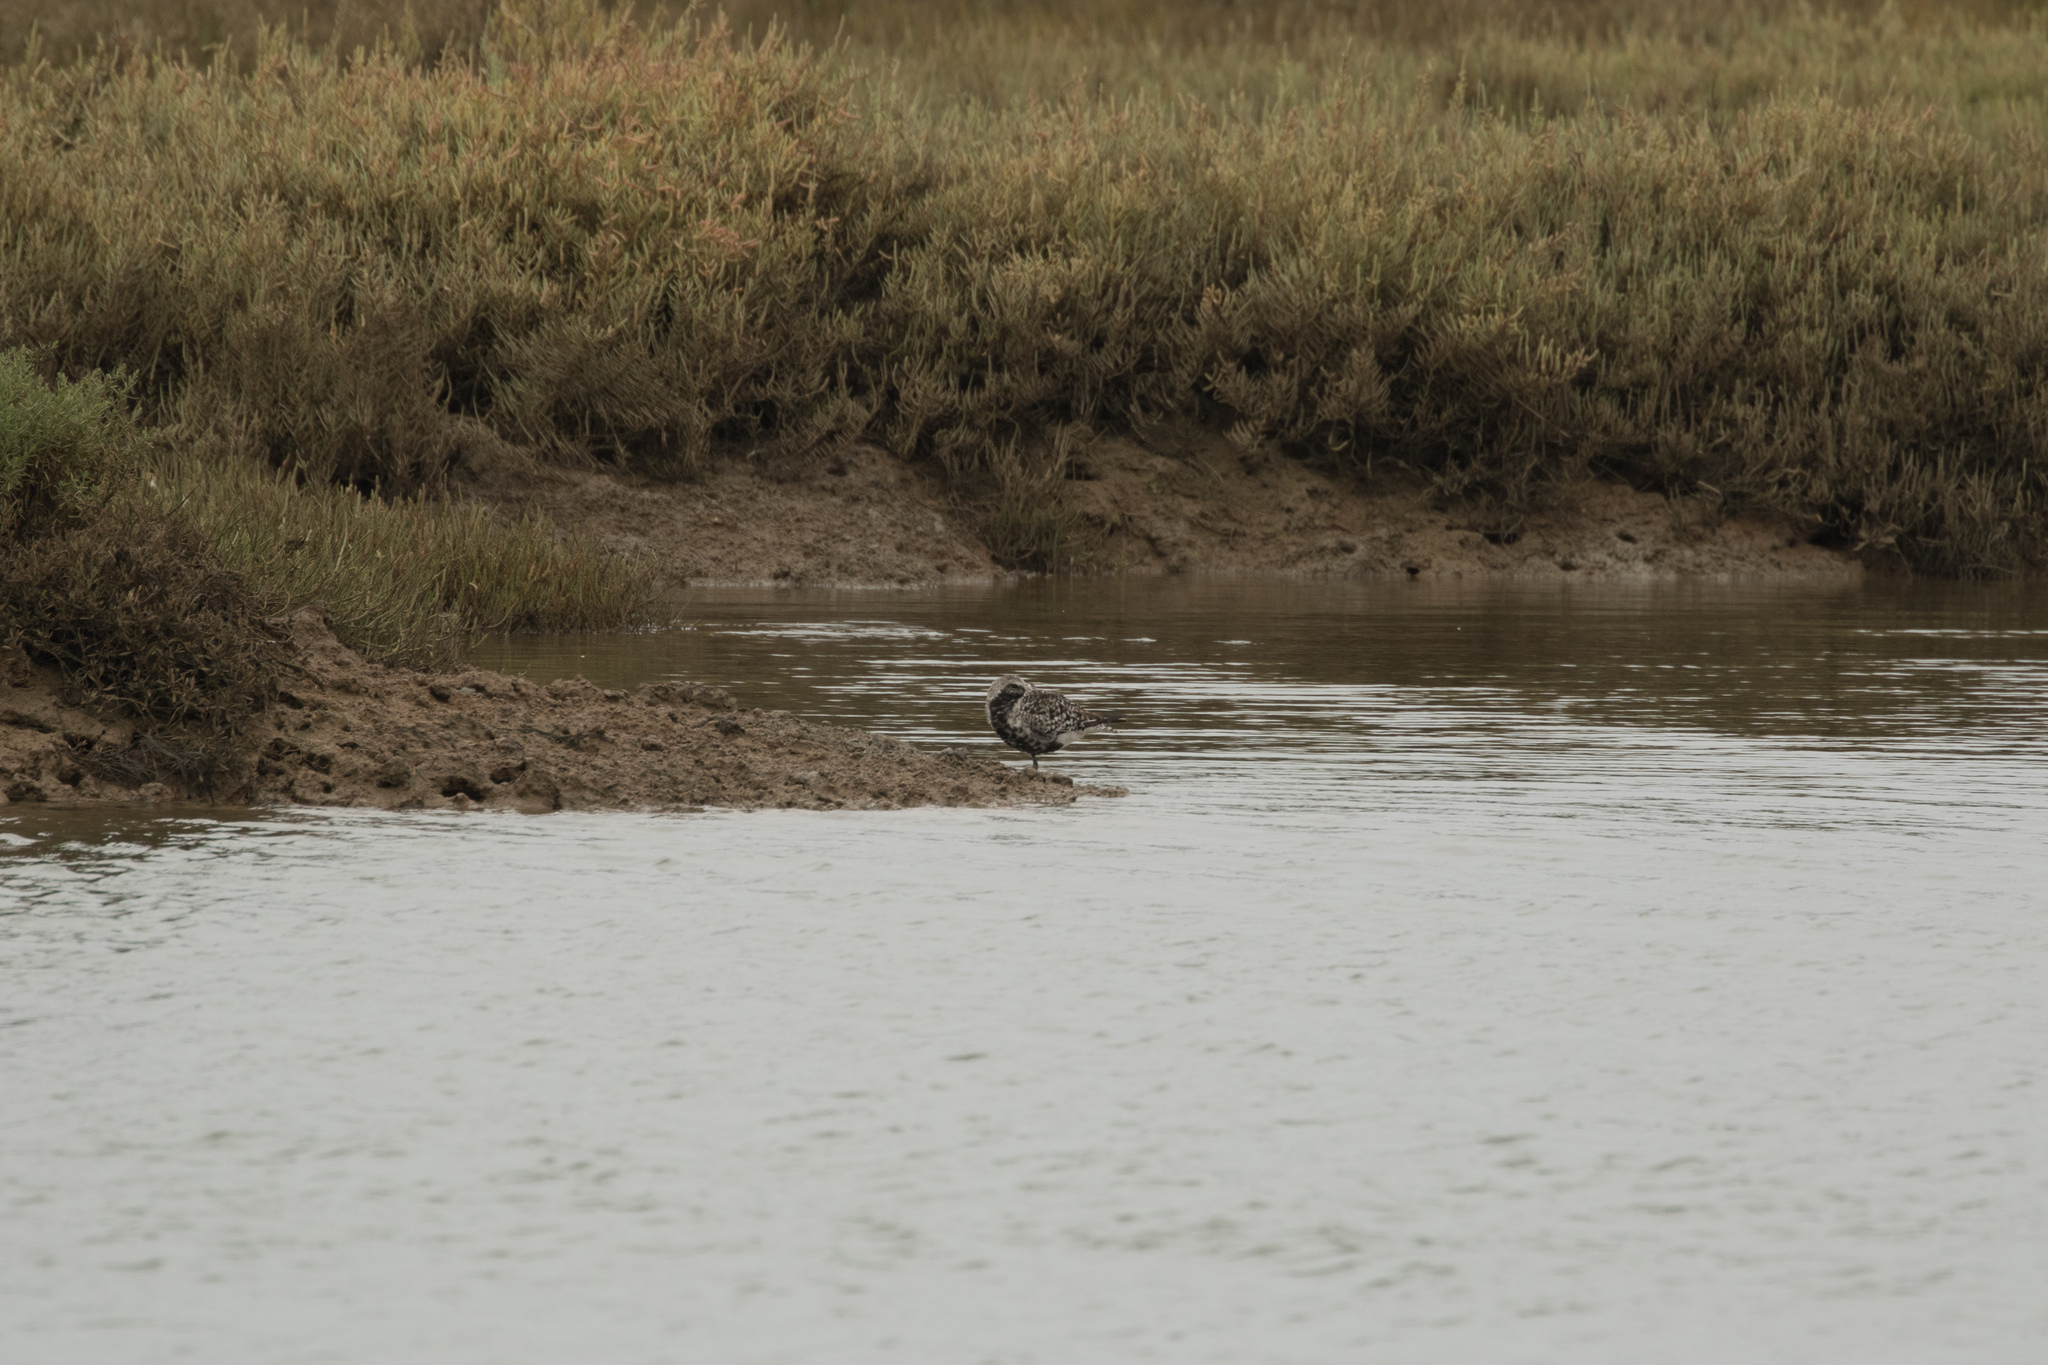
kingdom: Animalia
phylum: Chordata
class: Aves
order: Charadriiformes
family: Charadriidae
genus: Pluvialis
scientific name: Pluvialis squatarola
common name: Grey plover
